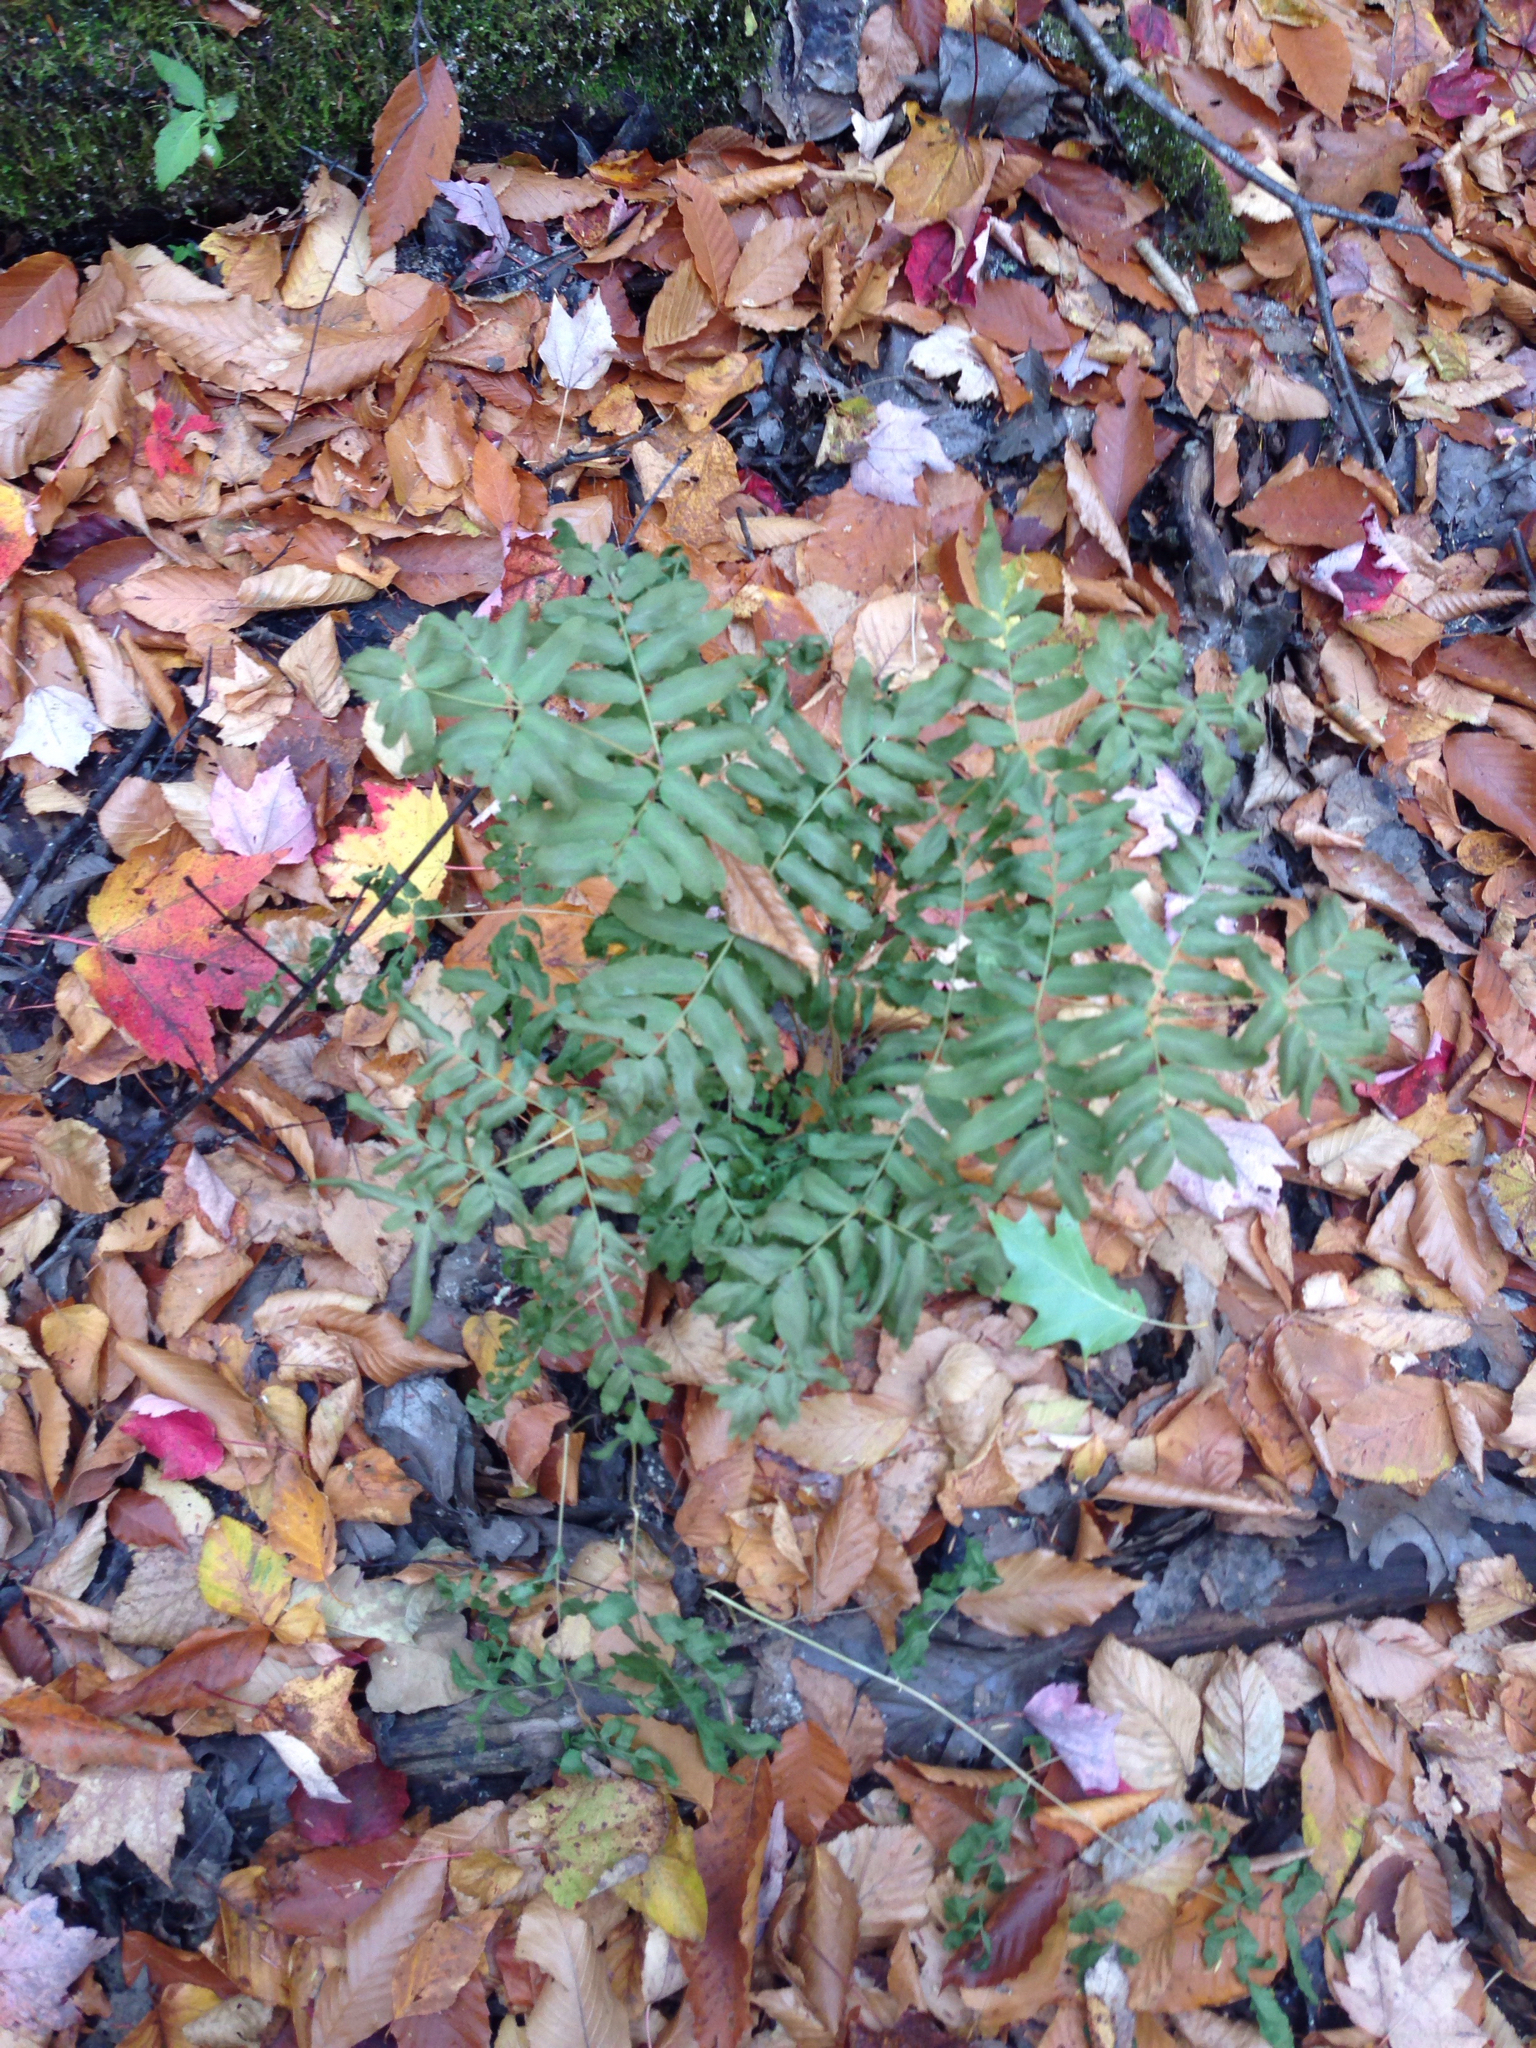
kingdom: Plantae
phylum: Tracheophyta
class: Polypodiopsida
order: Osmundales
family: Osmundaceae
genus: Osmunda
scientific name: Osmunda spectabilis
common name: American royal fern
